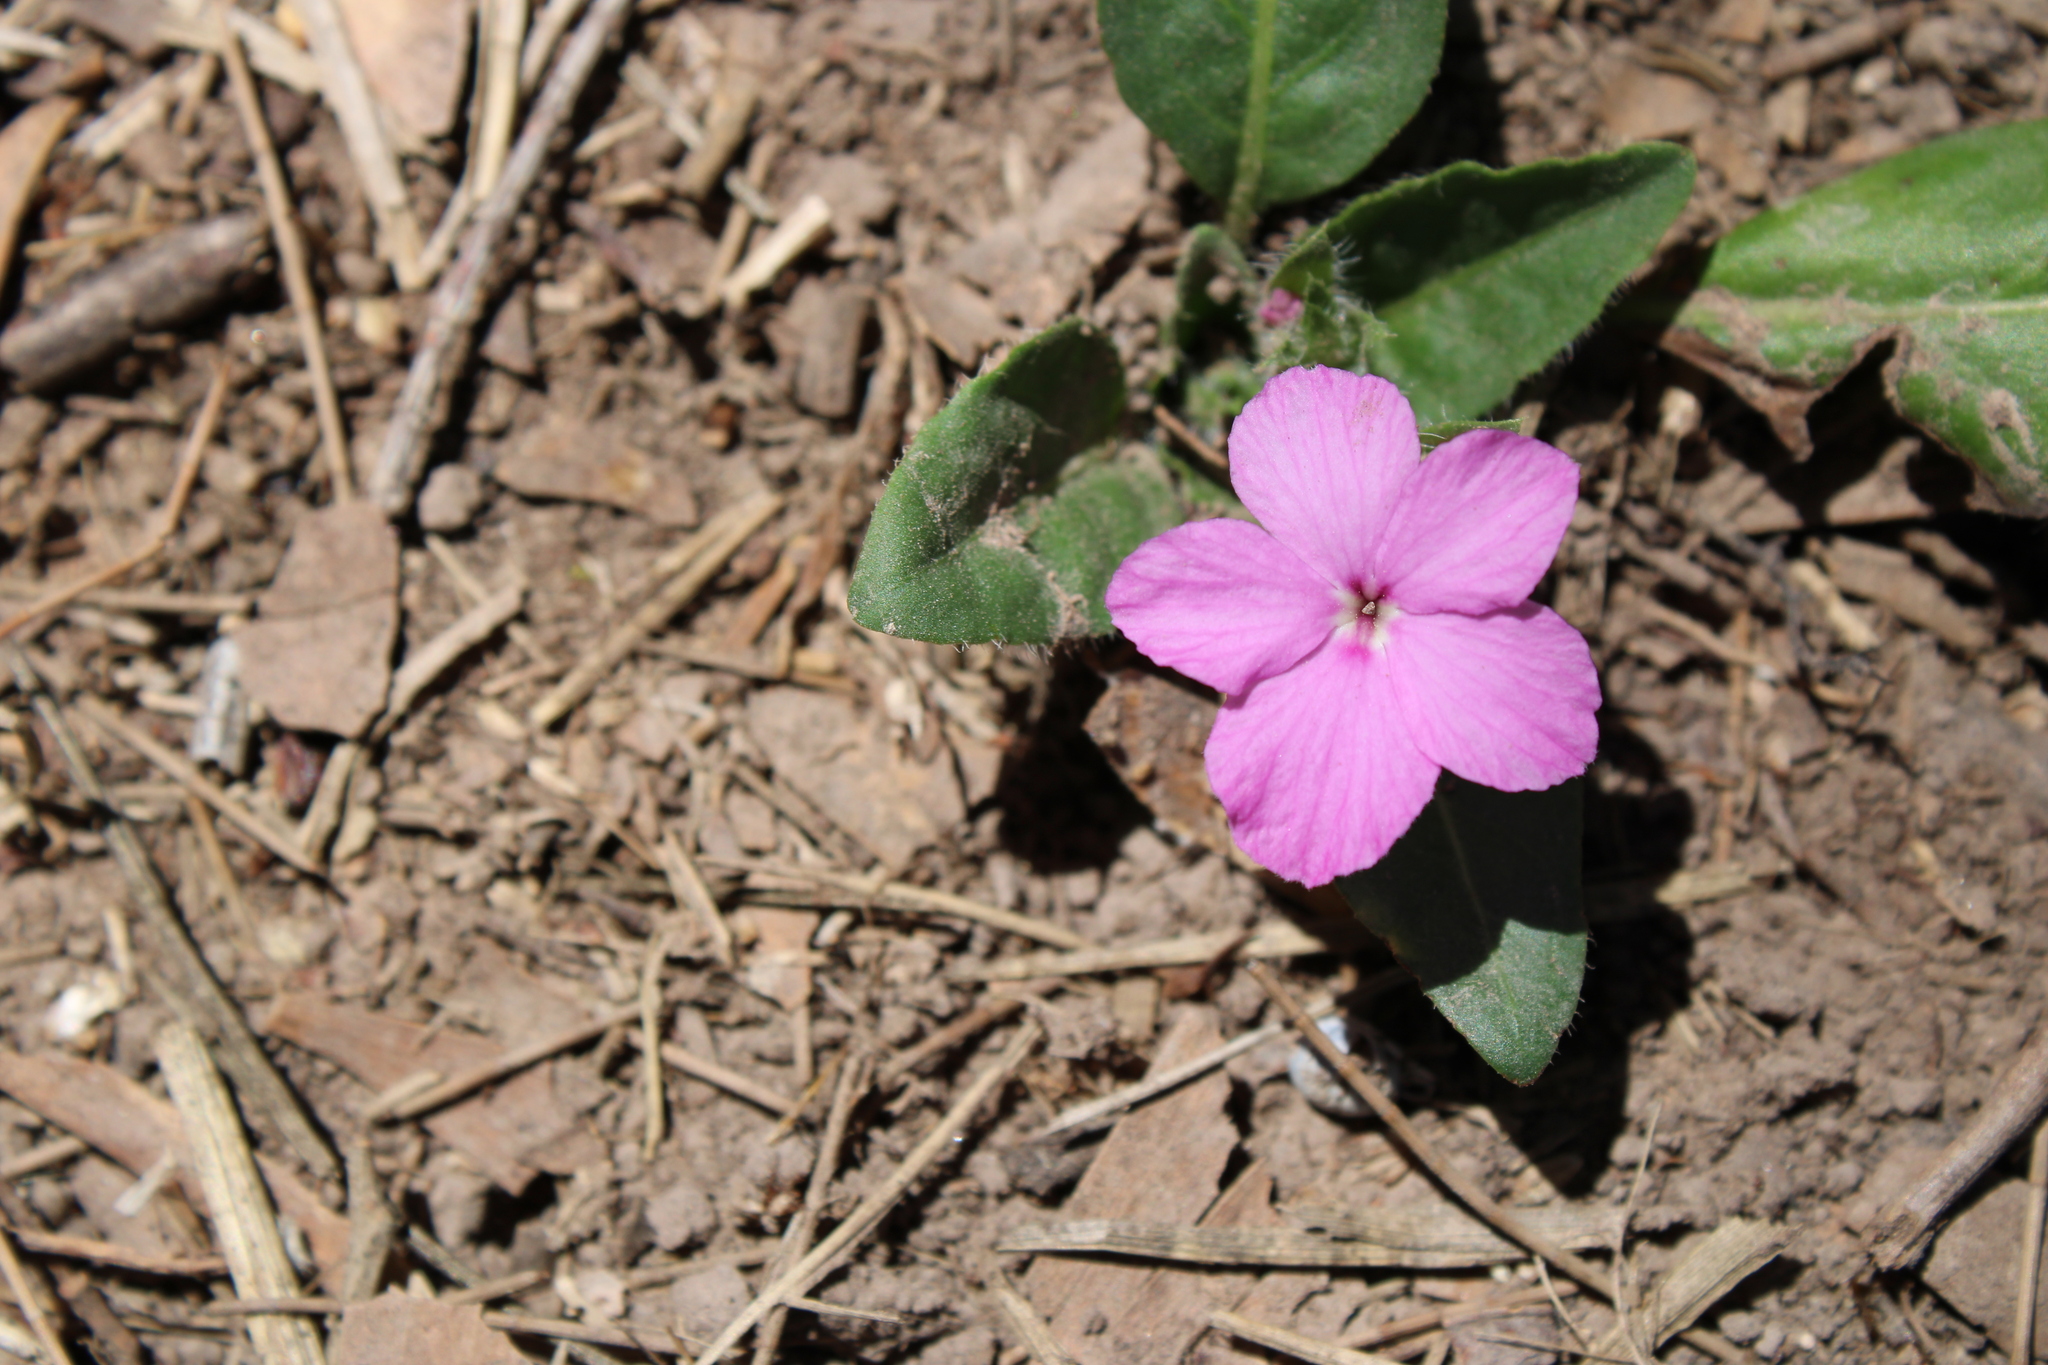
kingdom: Plantae
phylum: Tracheophyta
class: Magnoliopsida
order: Lamiales
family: Acanthaceae
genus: Stenandrium
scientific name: Stenandrium dulce
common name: Pinklet
